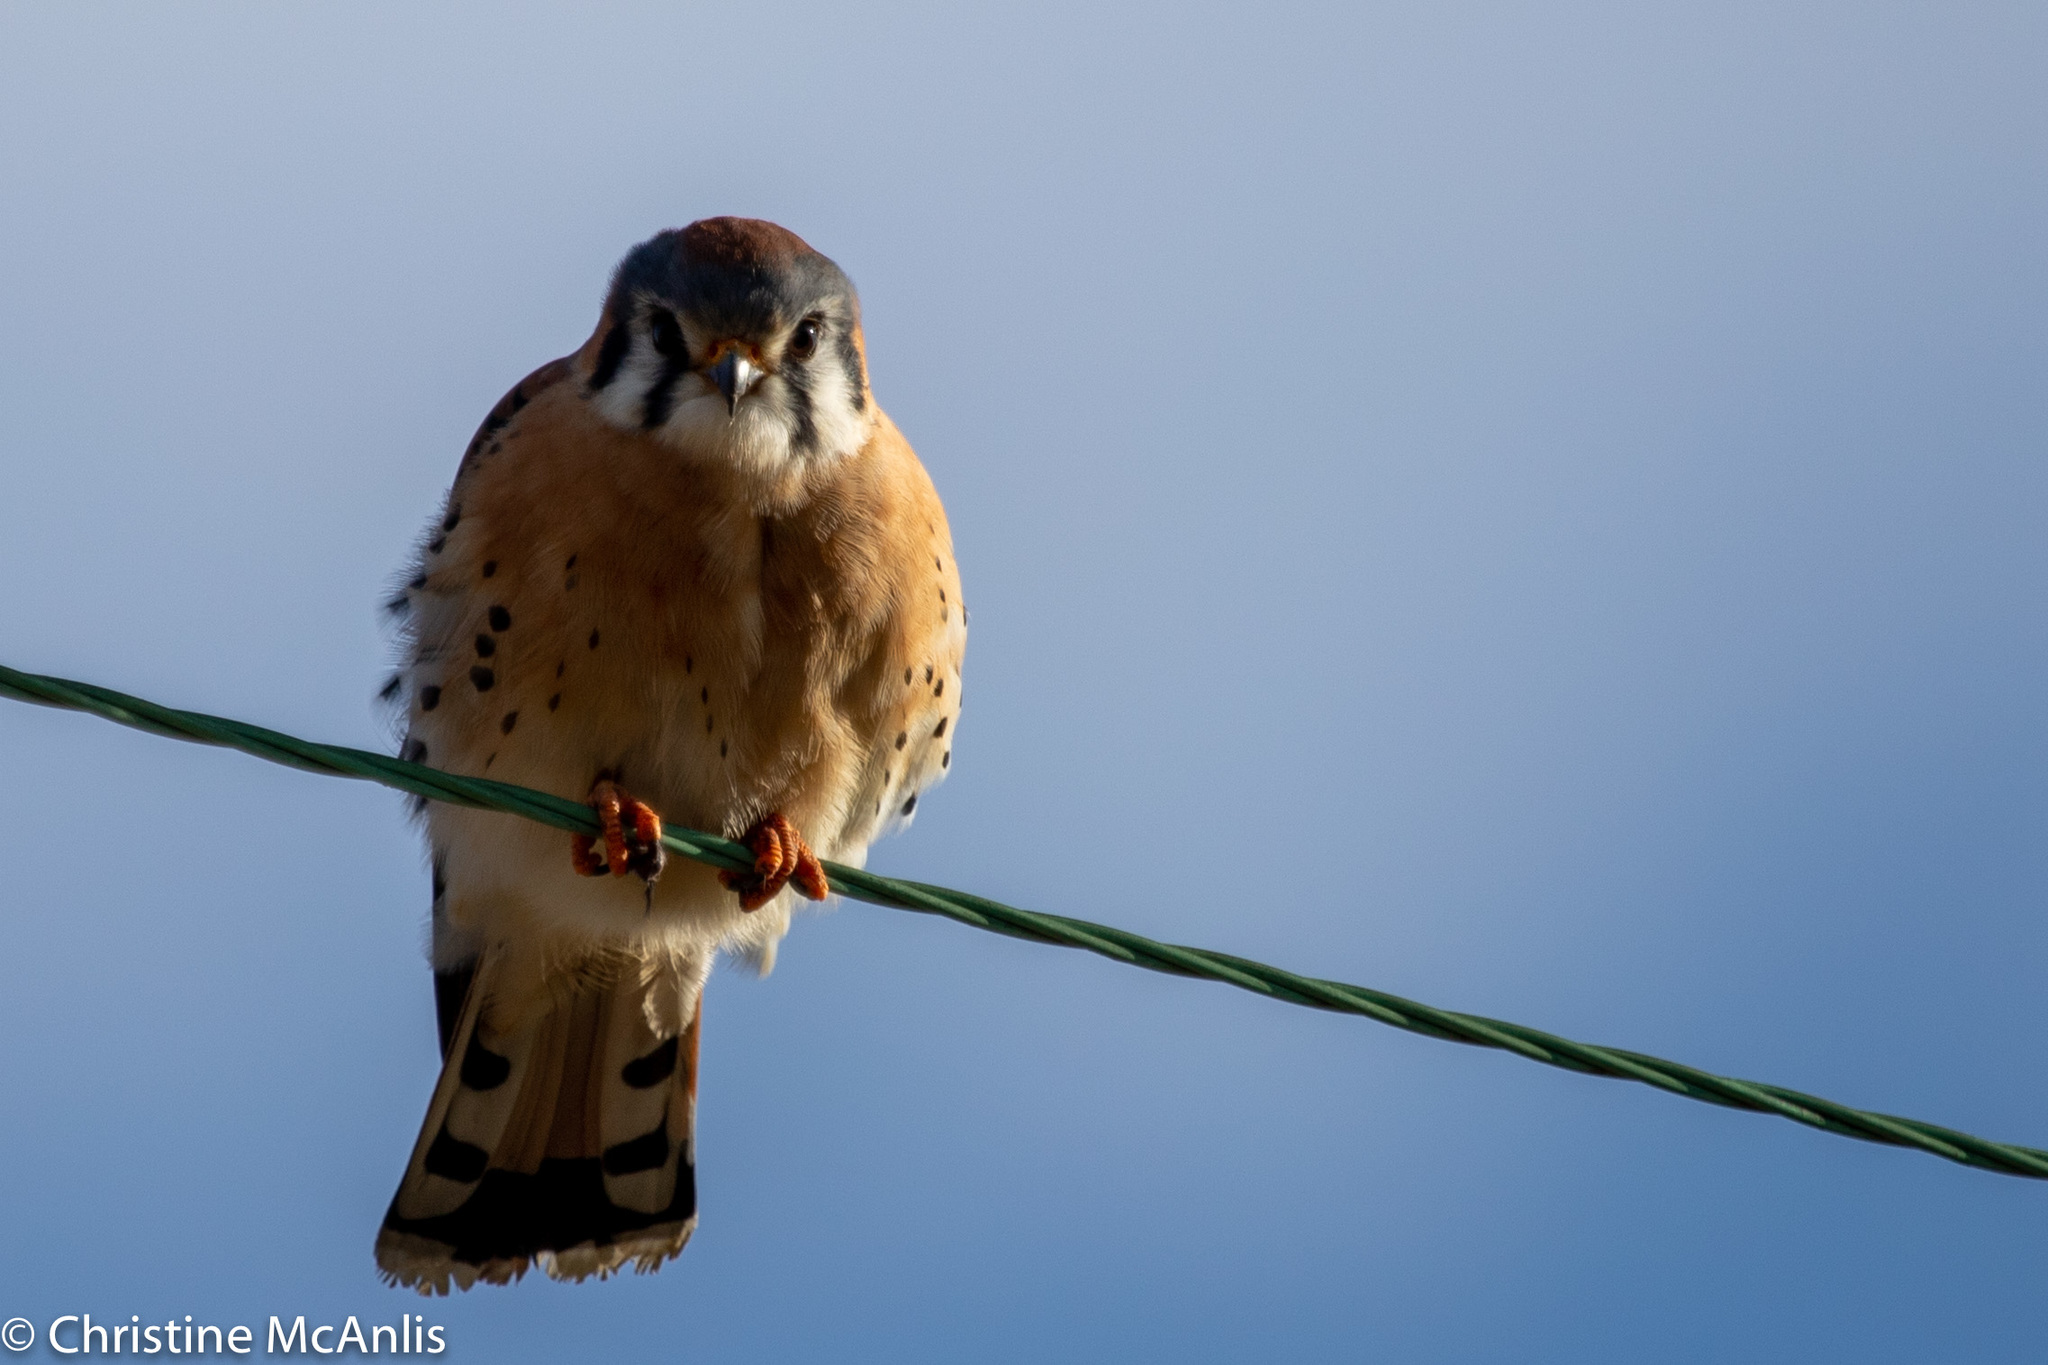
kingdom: Animalia
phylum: Chordata
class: Aves
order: Falconiformes
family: Falconidae
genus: Falco
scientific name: Falco sparverius
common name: American kestrel
